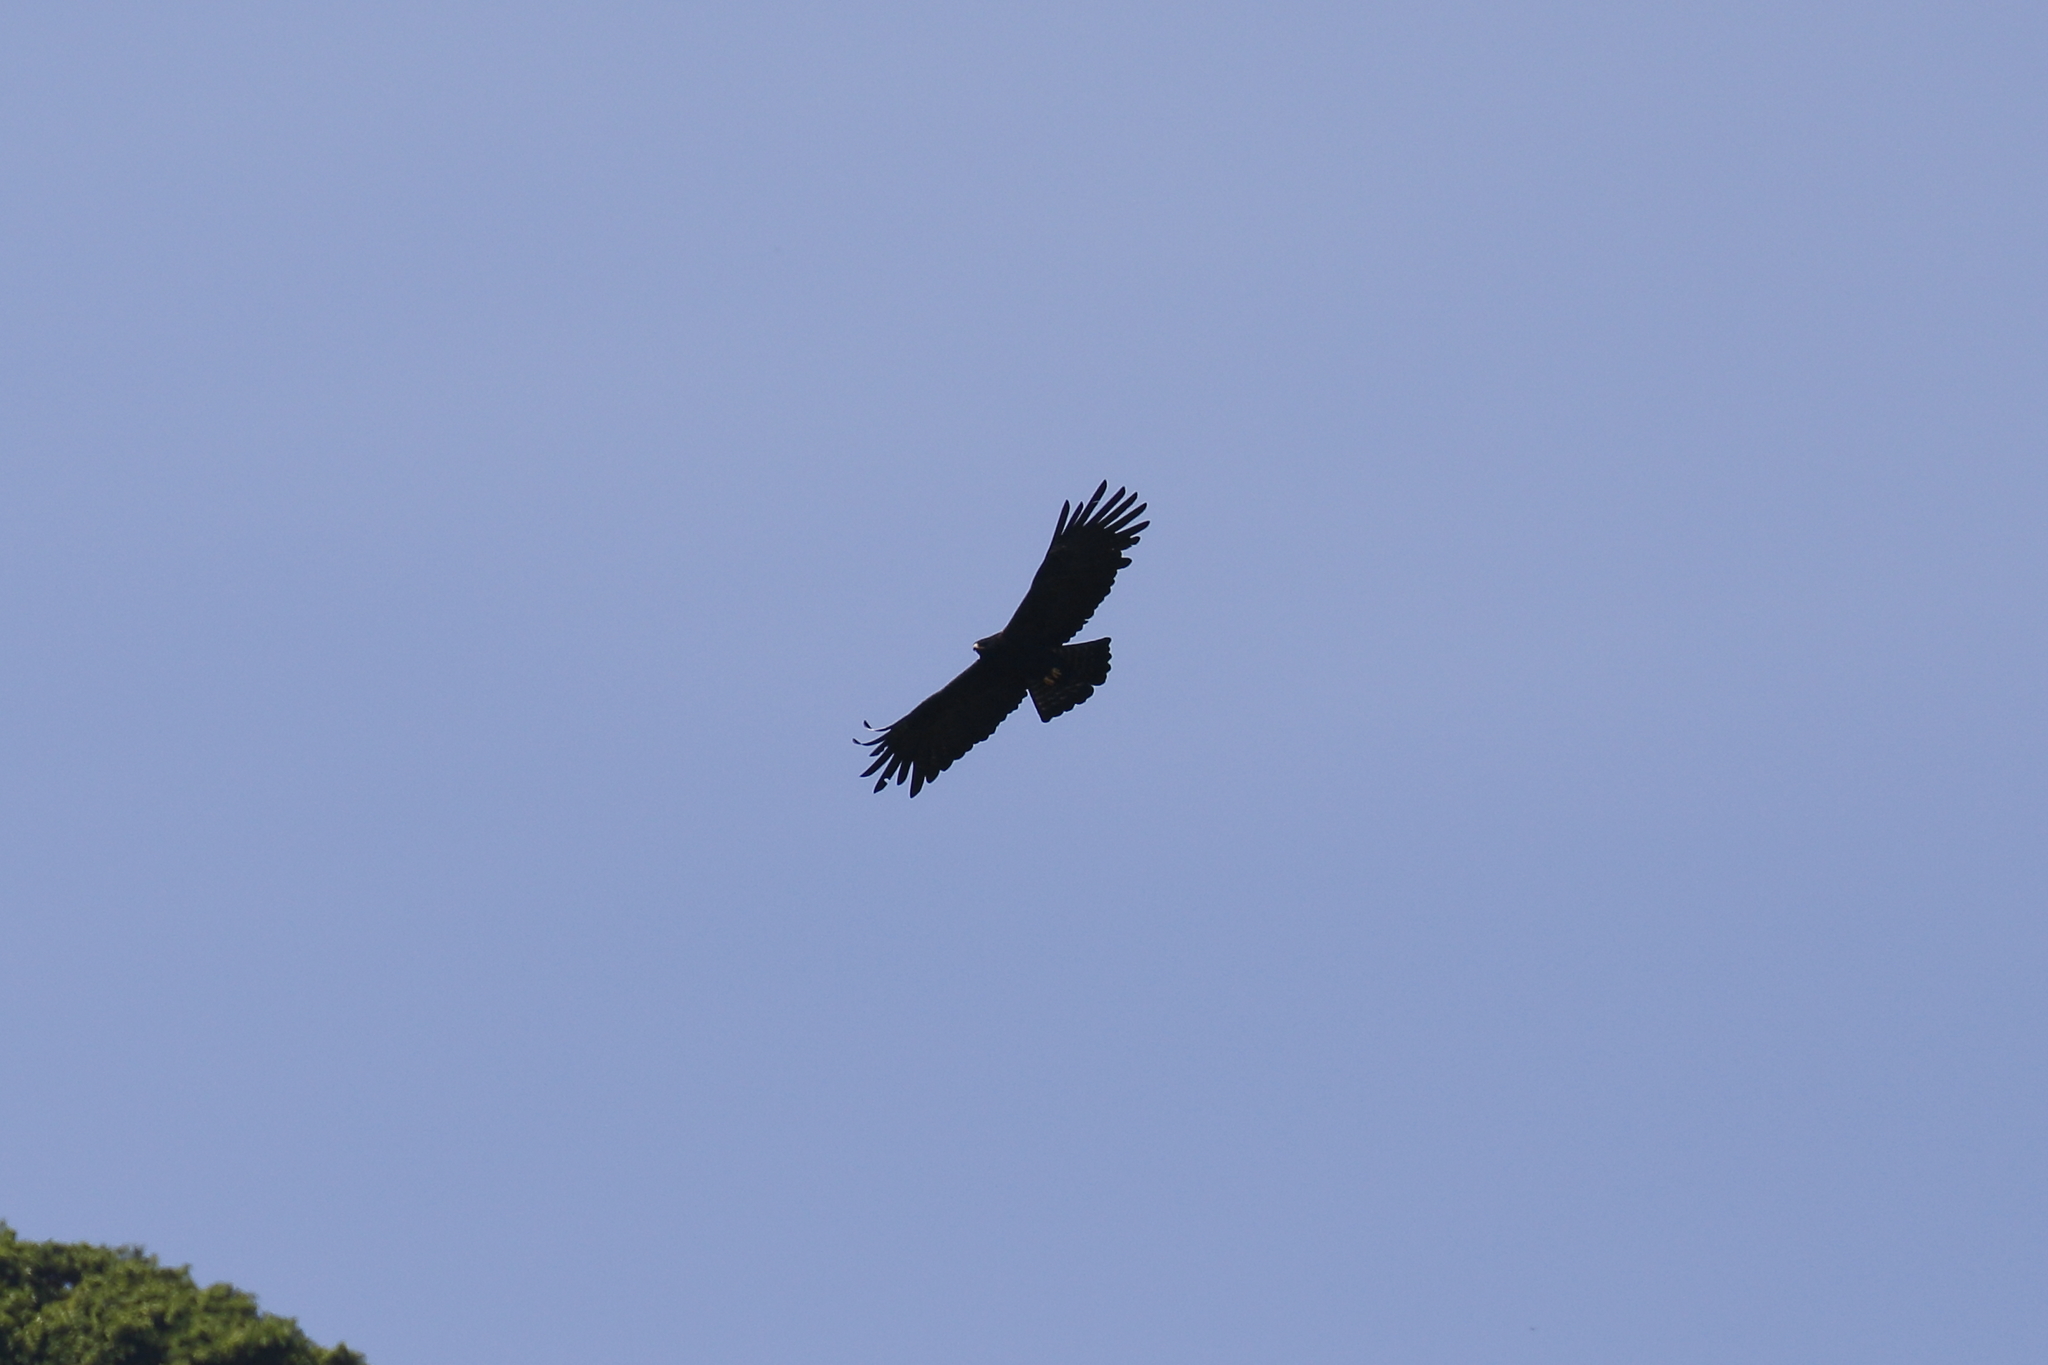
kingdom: Animalia
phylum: Chordata
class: Aves
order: Accipitriformes
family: Accipitridae
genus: Ictinaetus
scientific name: Ictinaetus malayensis
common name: Black eagle
